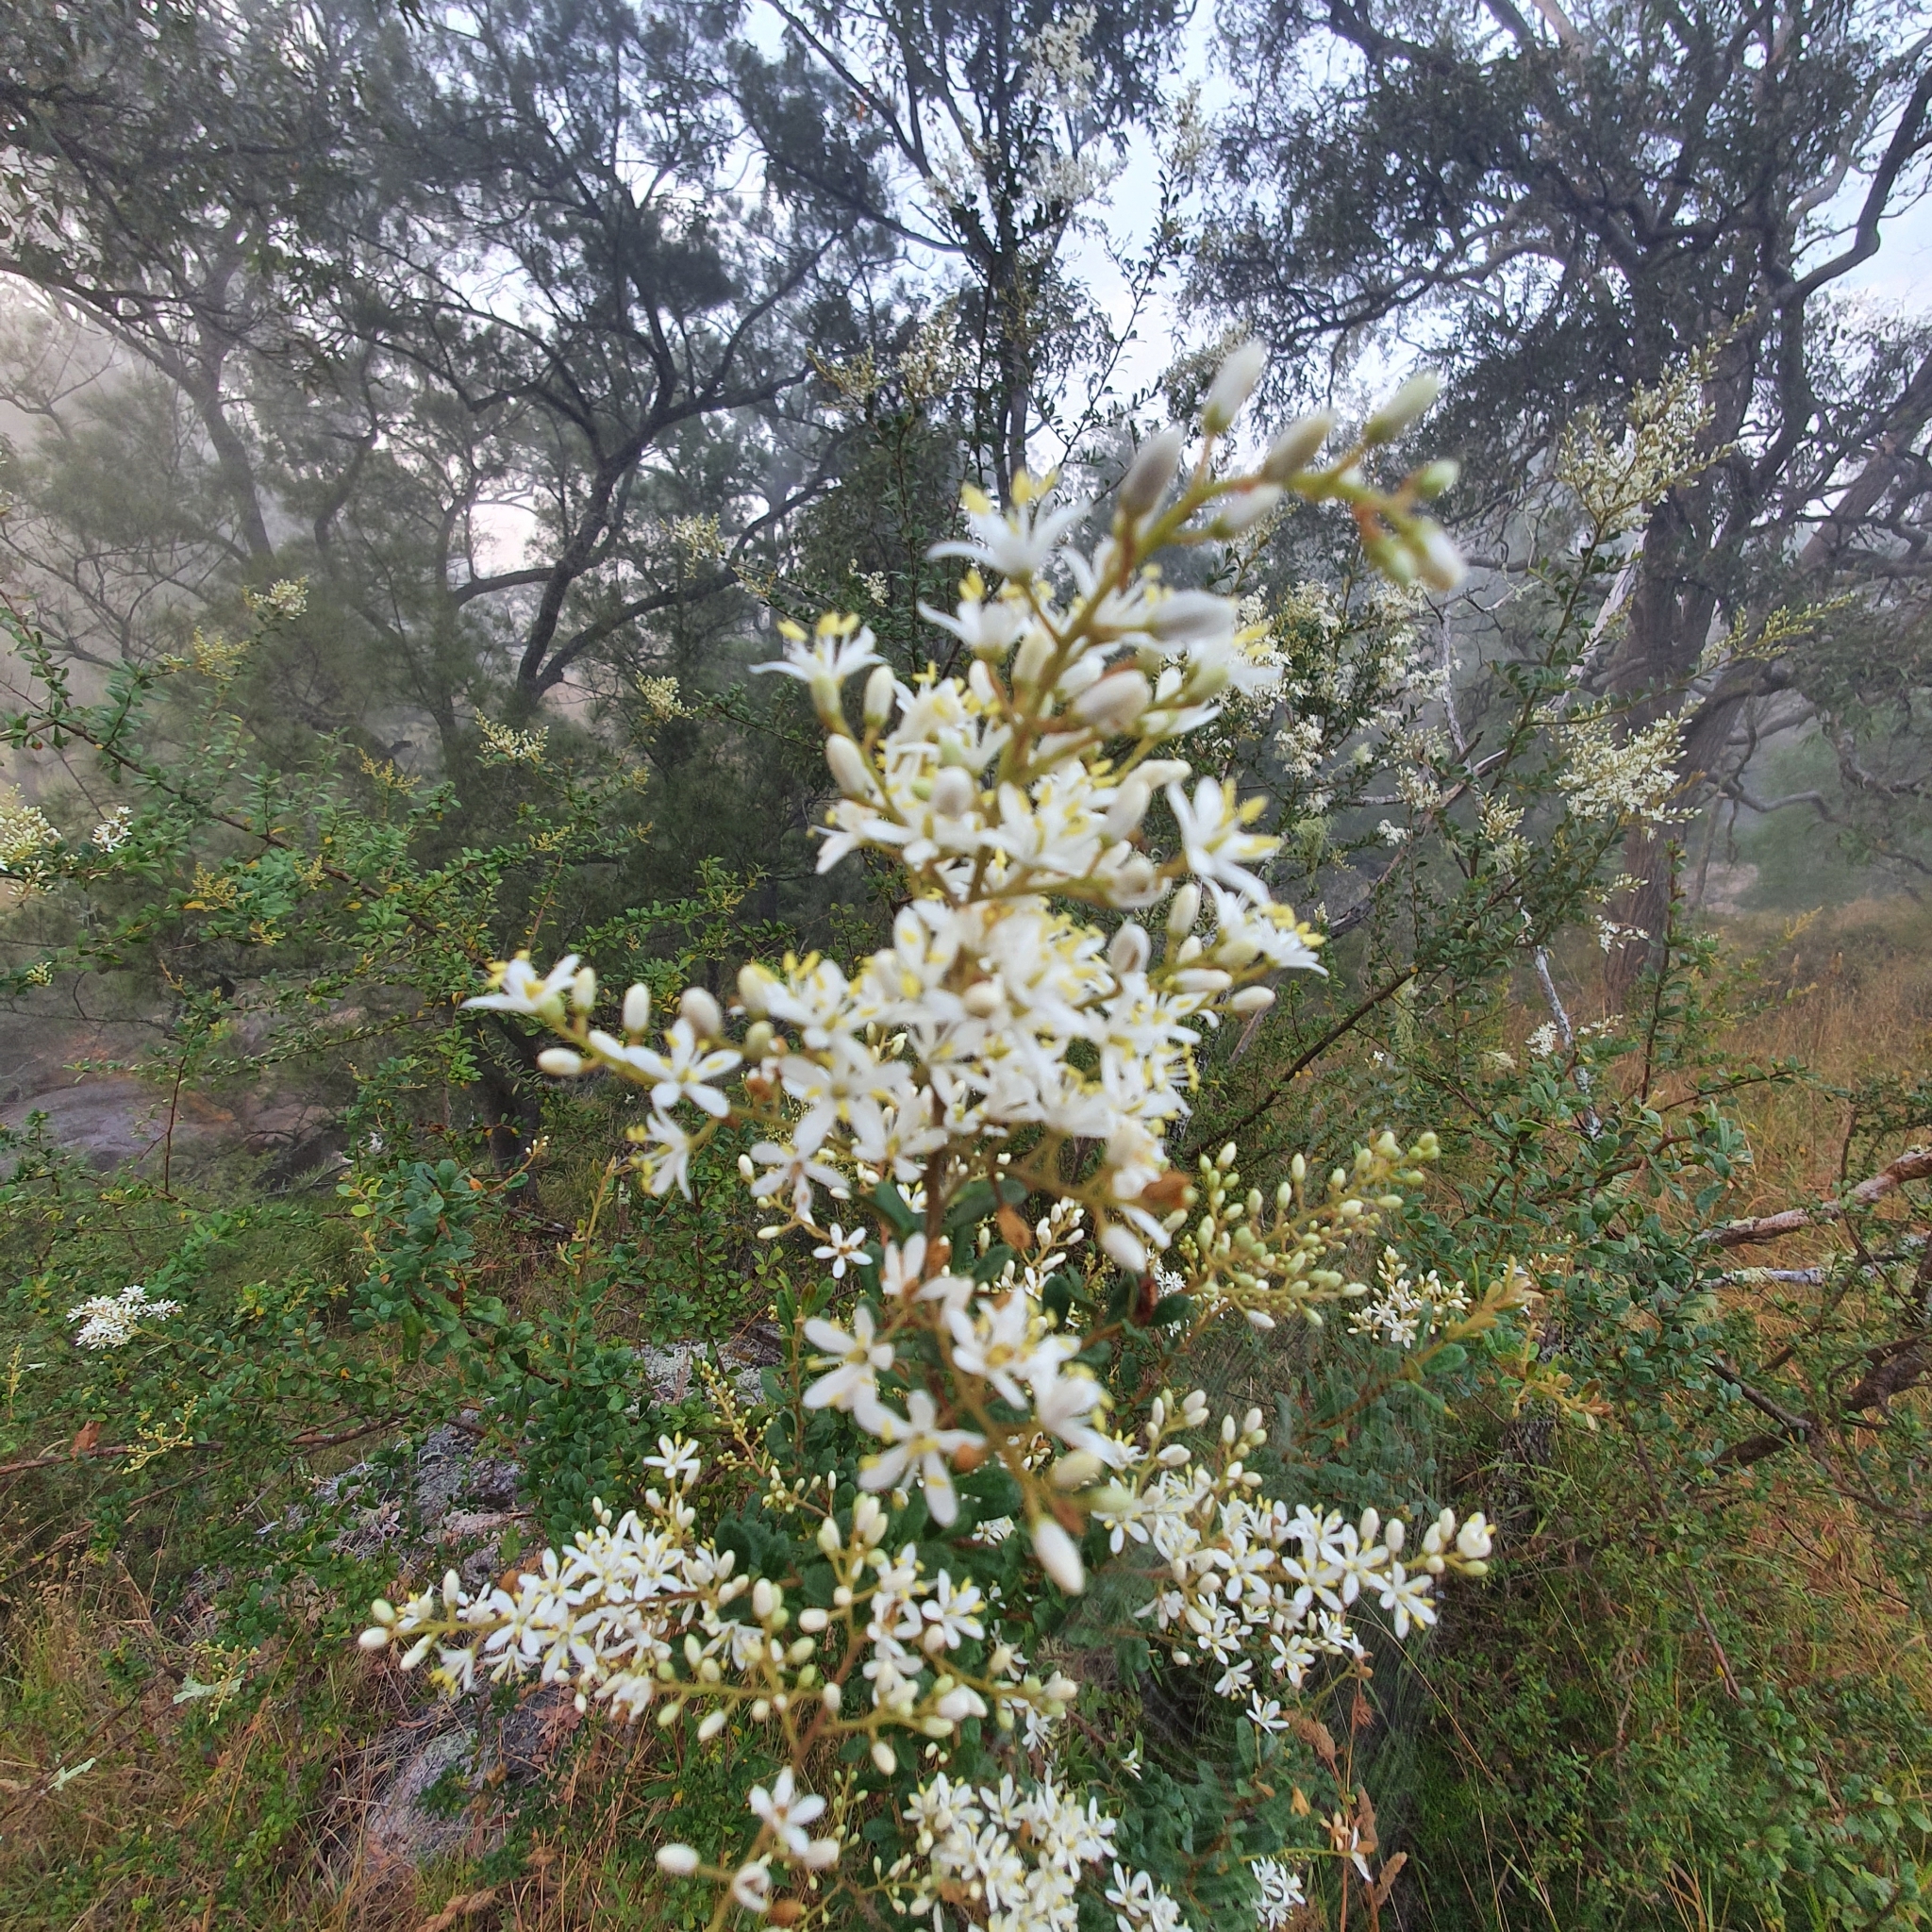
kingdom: Plantae
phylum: Tracheophyta
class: Magnoliopsida
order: Apiales
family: Pittosporaceae
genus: Bursaria
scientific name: Bursaria spinosa
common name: Australian blackthorn
